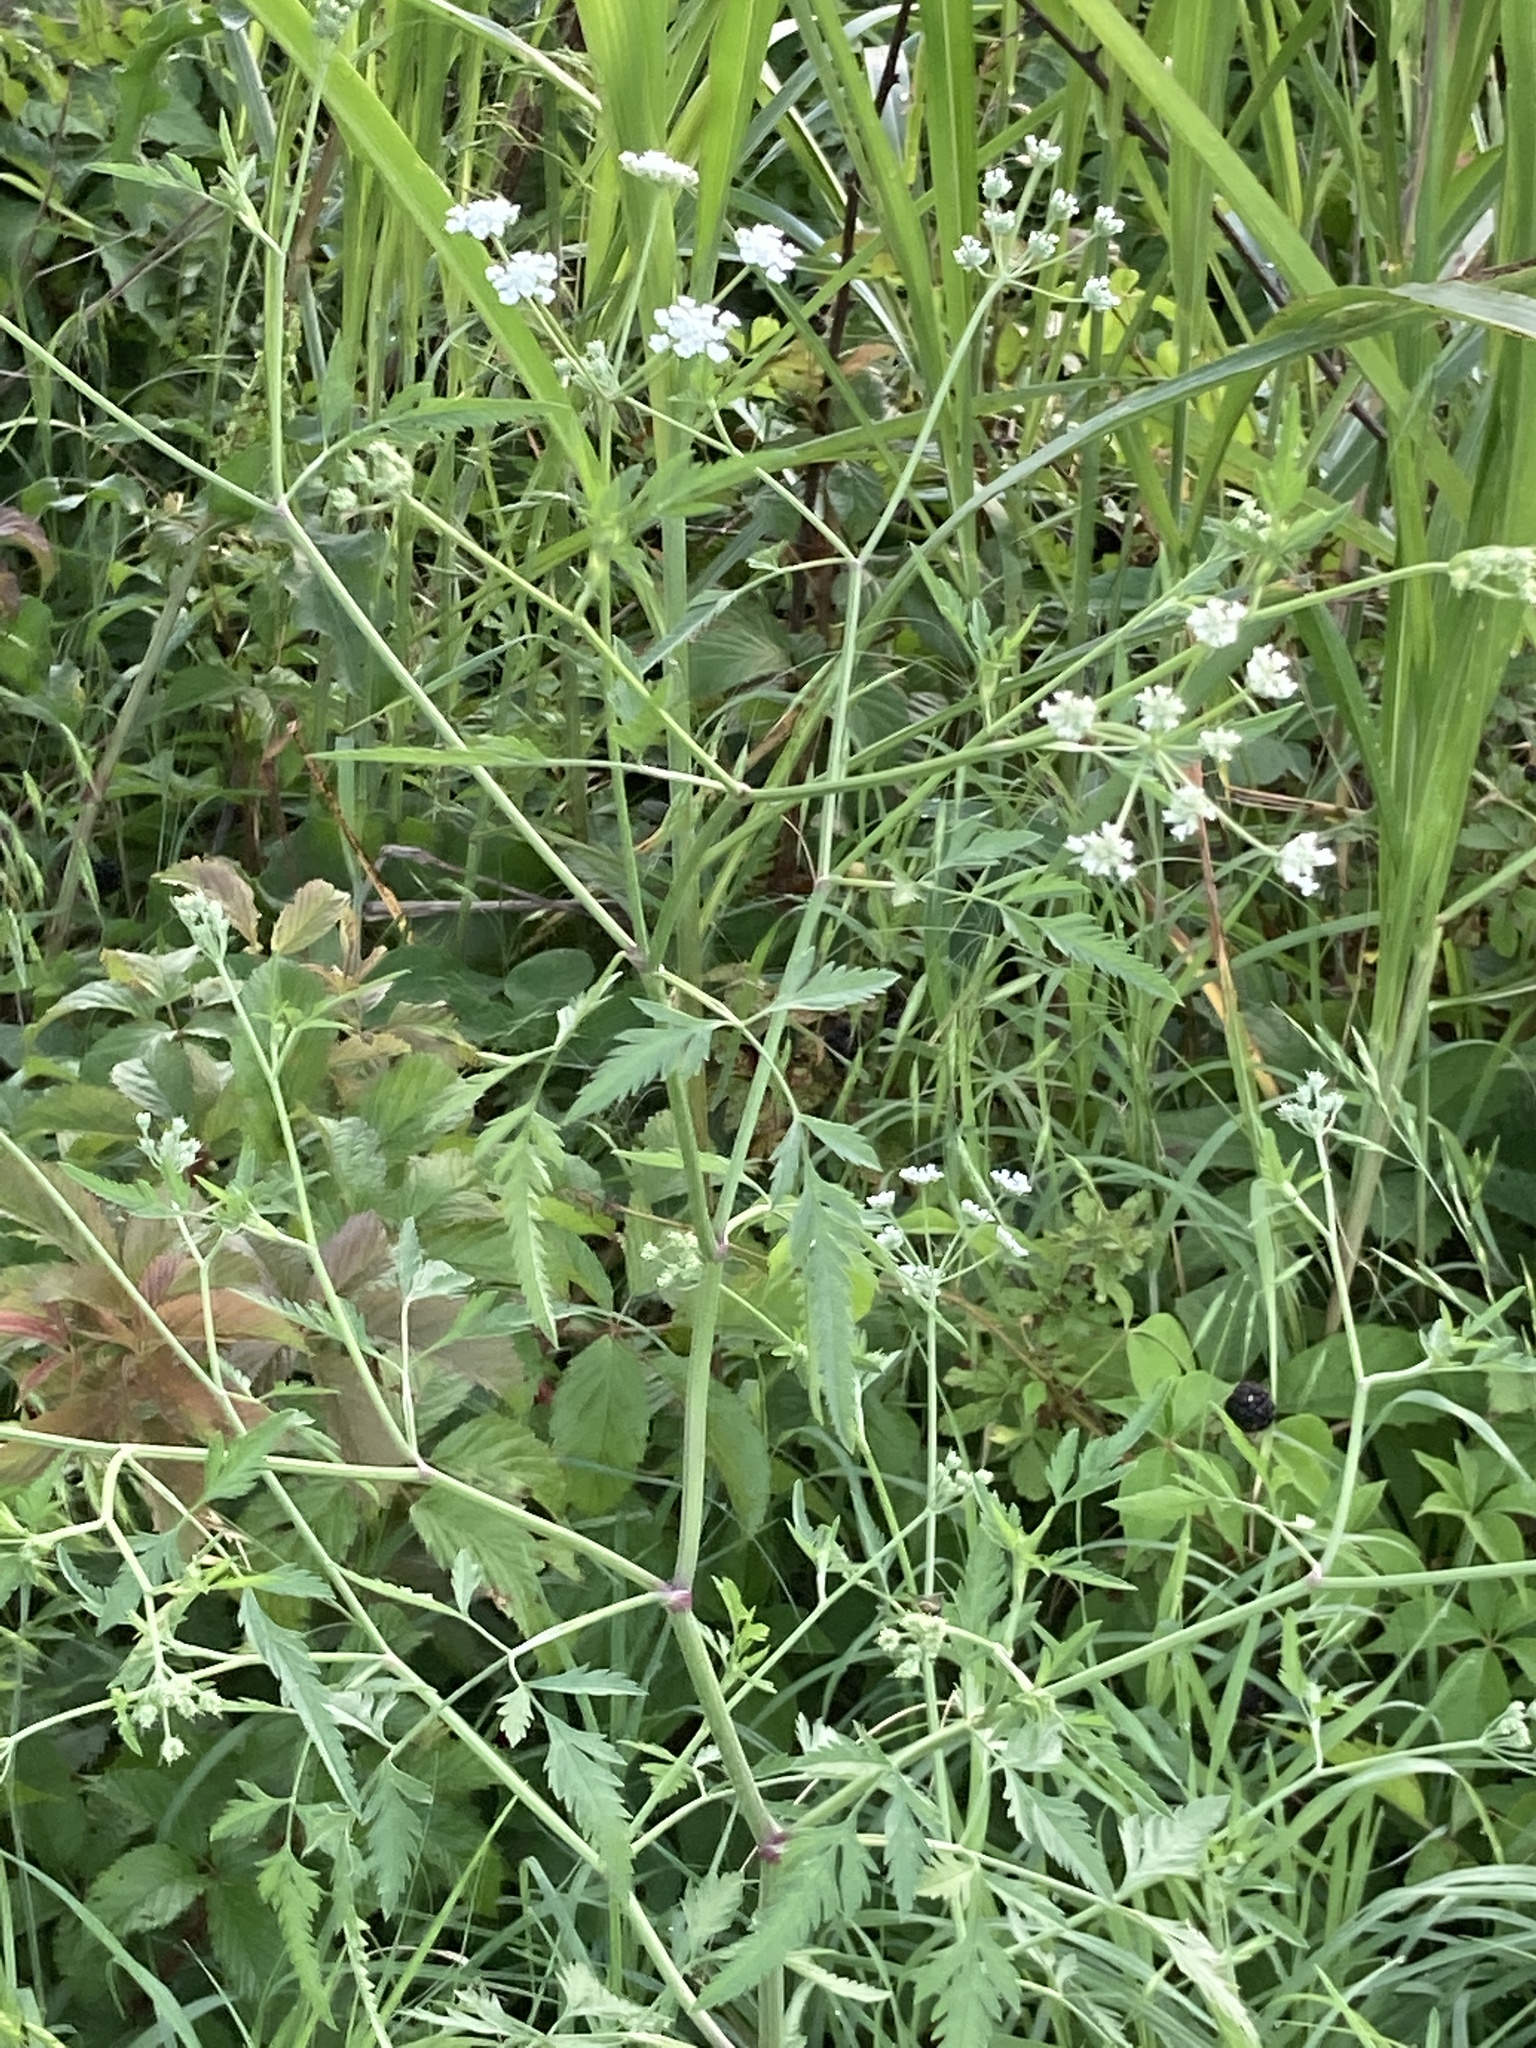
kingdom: Plantae
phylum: Tracheophyta
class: Magnoliopsida
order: Apiales
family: Apiaceae
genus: Torilis
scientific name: Torilis arvensis
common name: Spreading hedge-parsley
